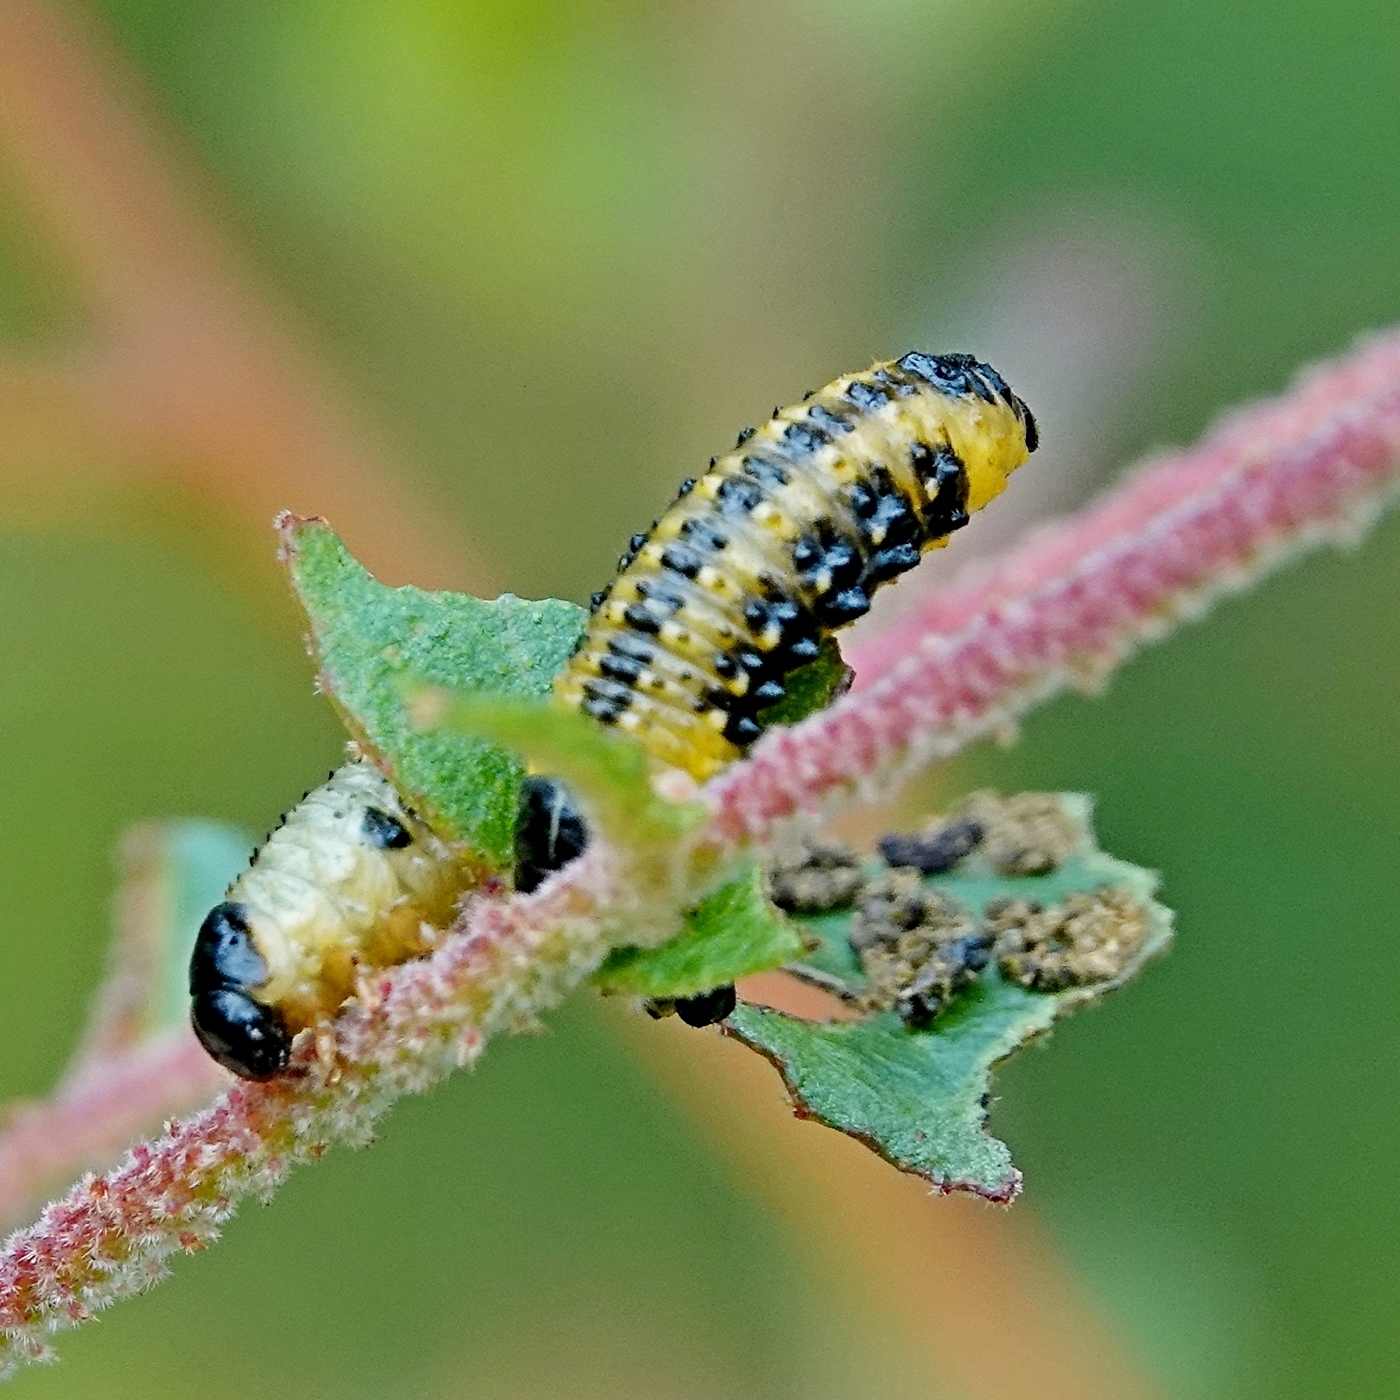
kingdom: Animalia
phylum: Arthropoda
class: Insecta
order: Coleoptera
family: Chrysomelidae
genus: Paropsis
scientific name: Paropsis
